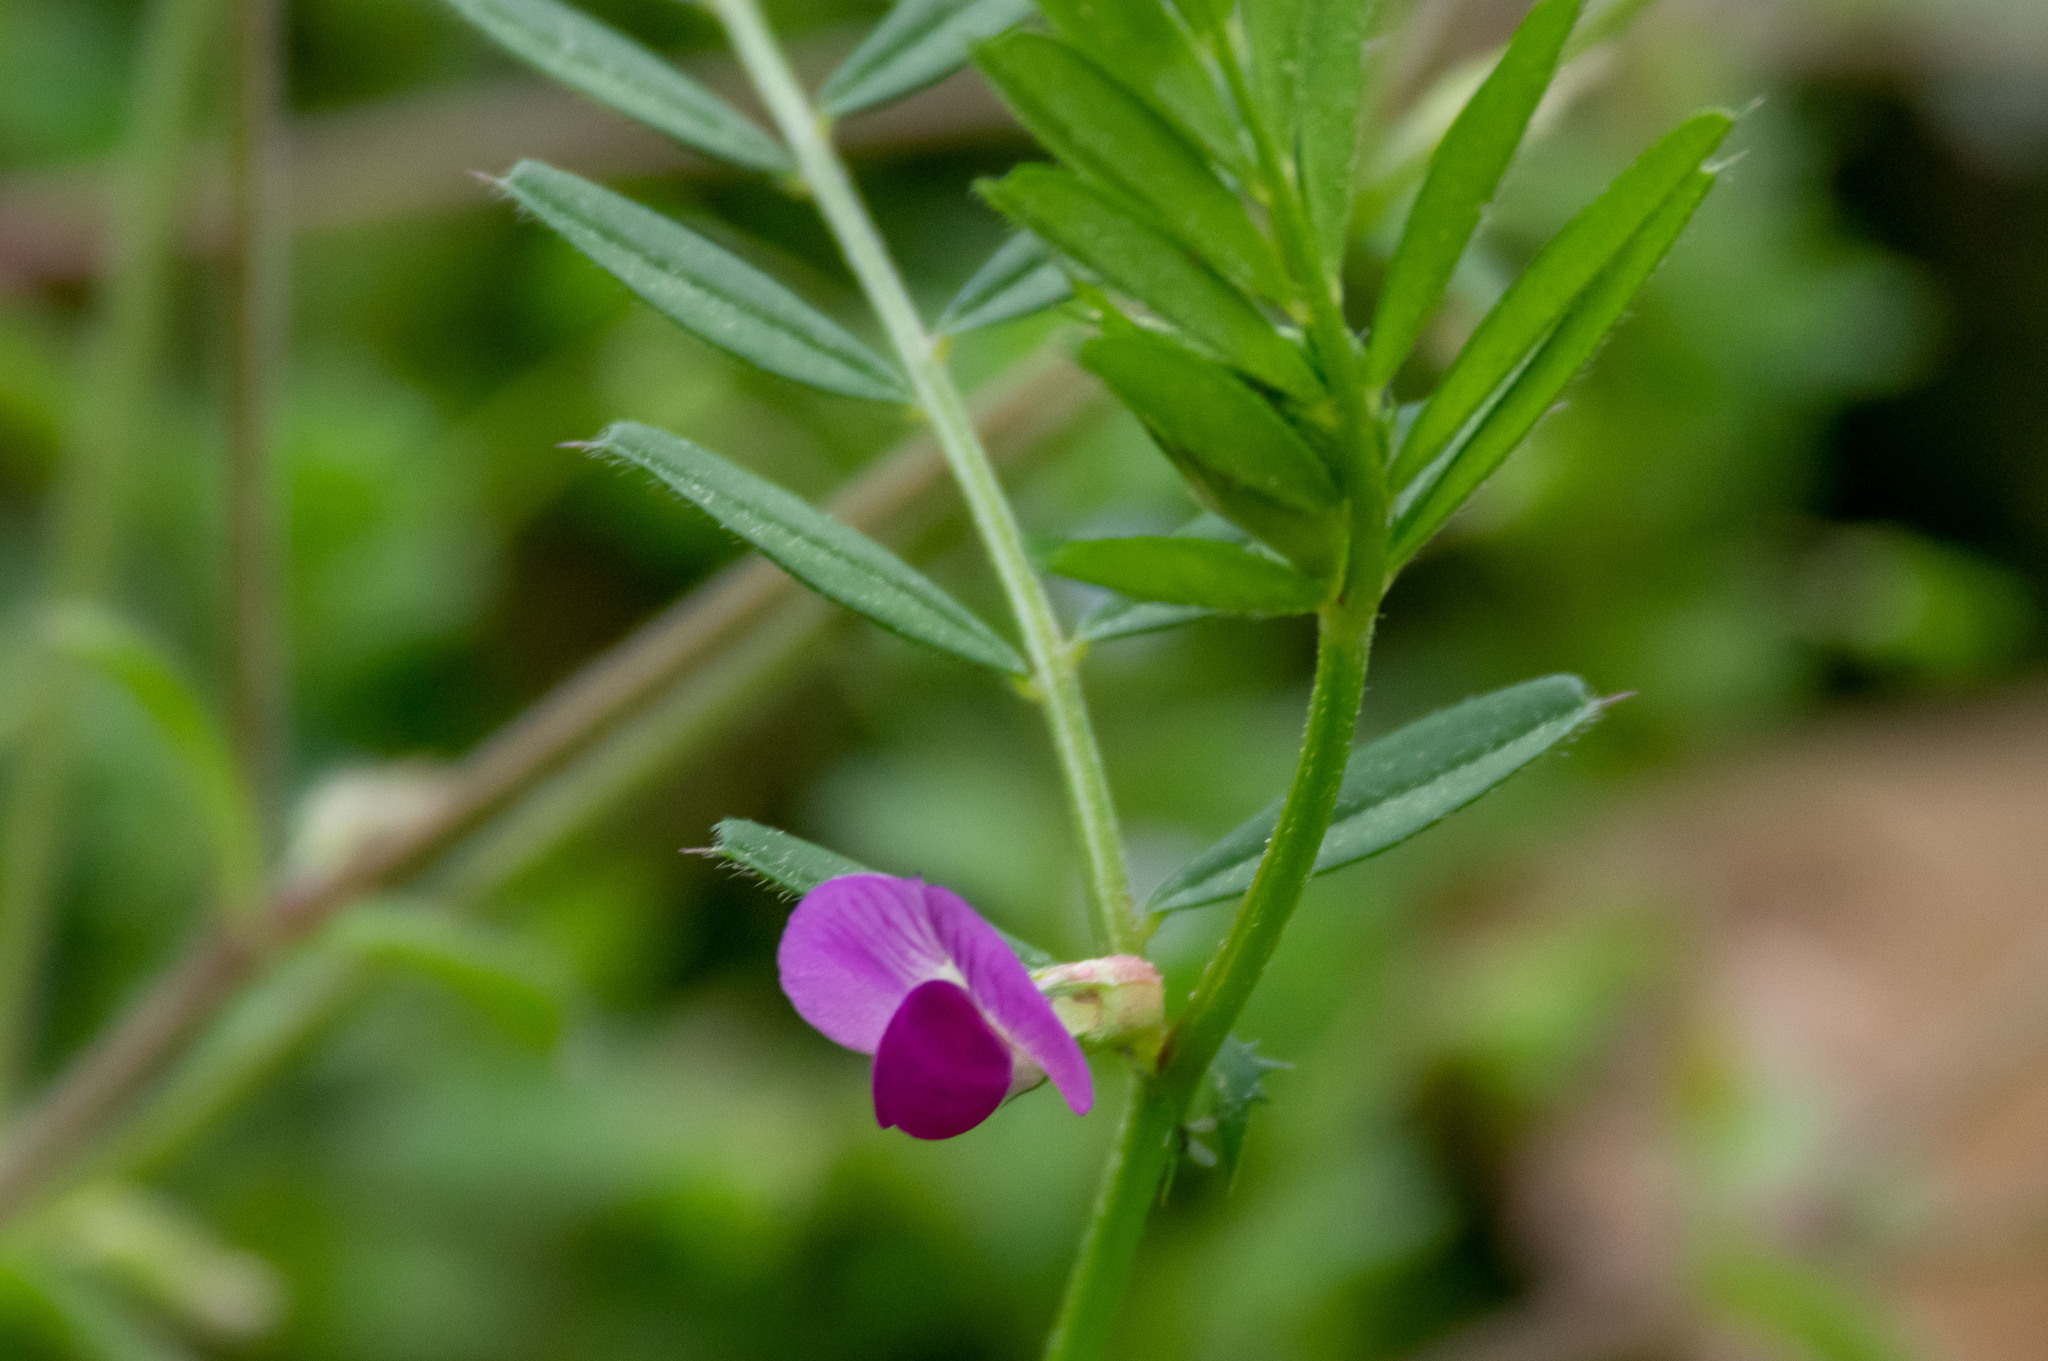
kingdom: Plantae
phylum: Tracheophyta
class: Magnoliopsida
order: Fabales
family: Fabaceae
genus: Vicia
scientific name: Vicia sativa
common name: Garden vetch
